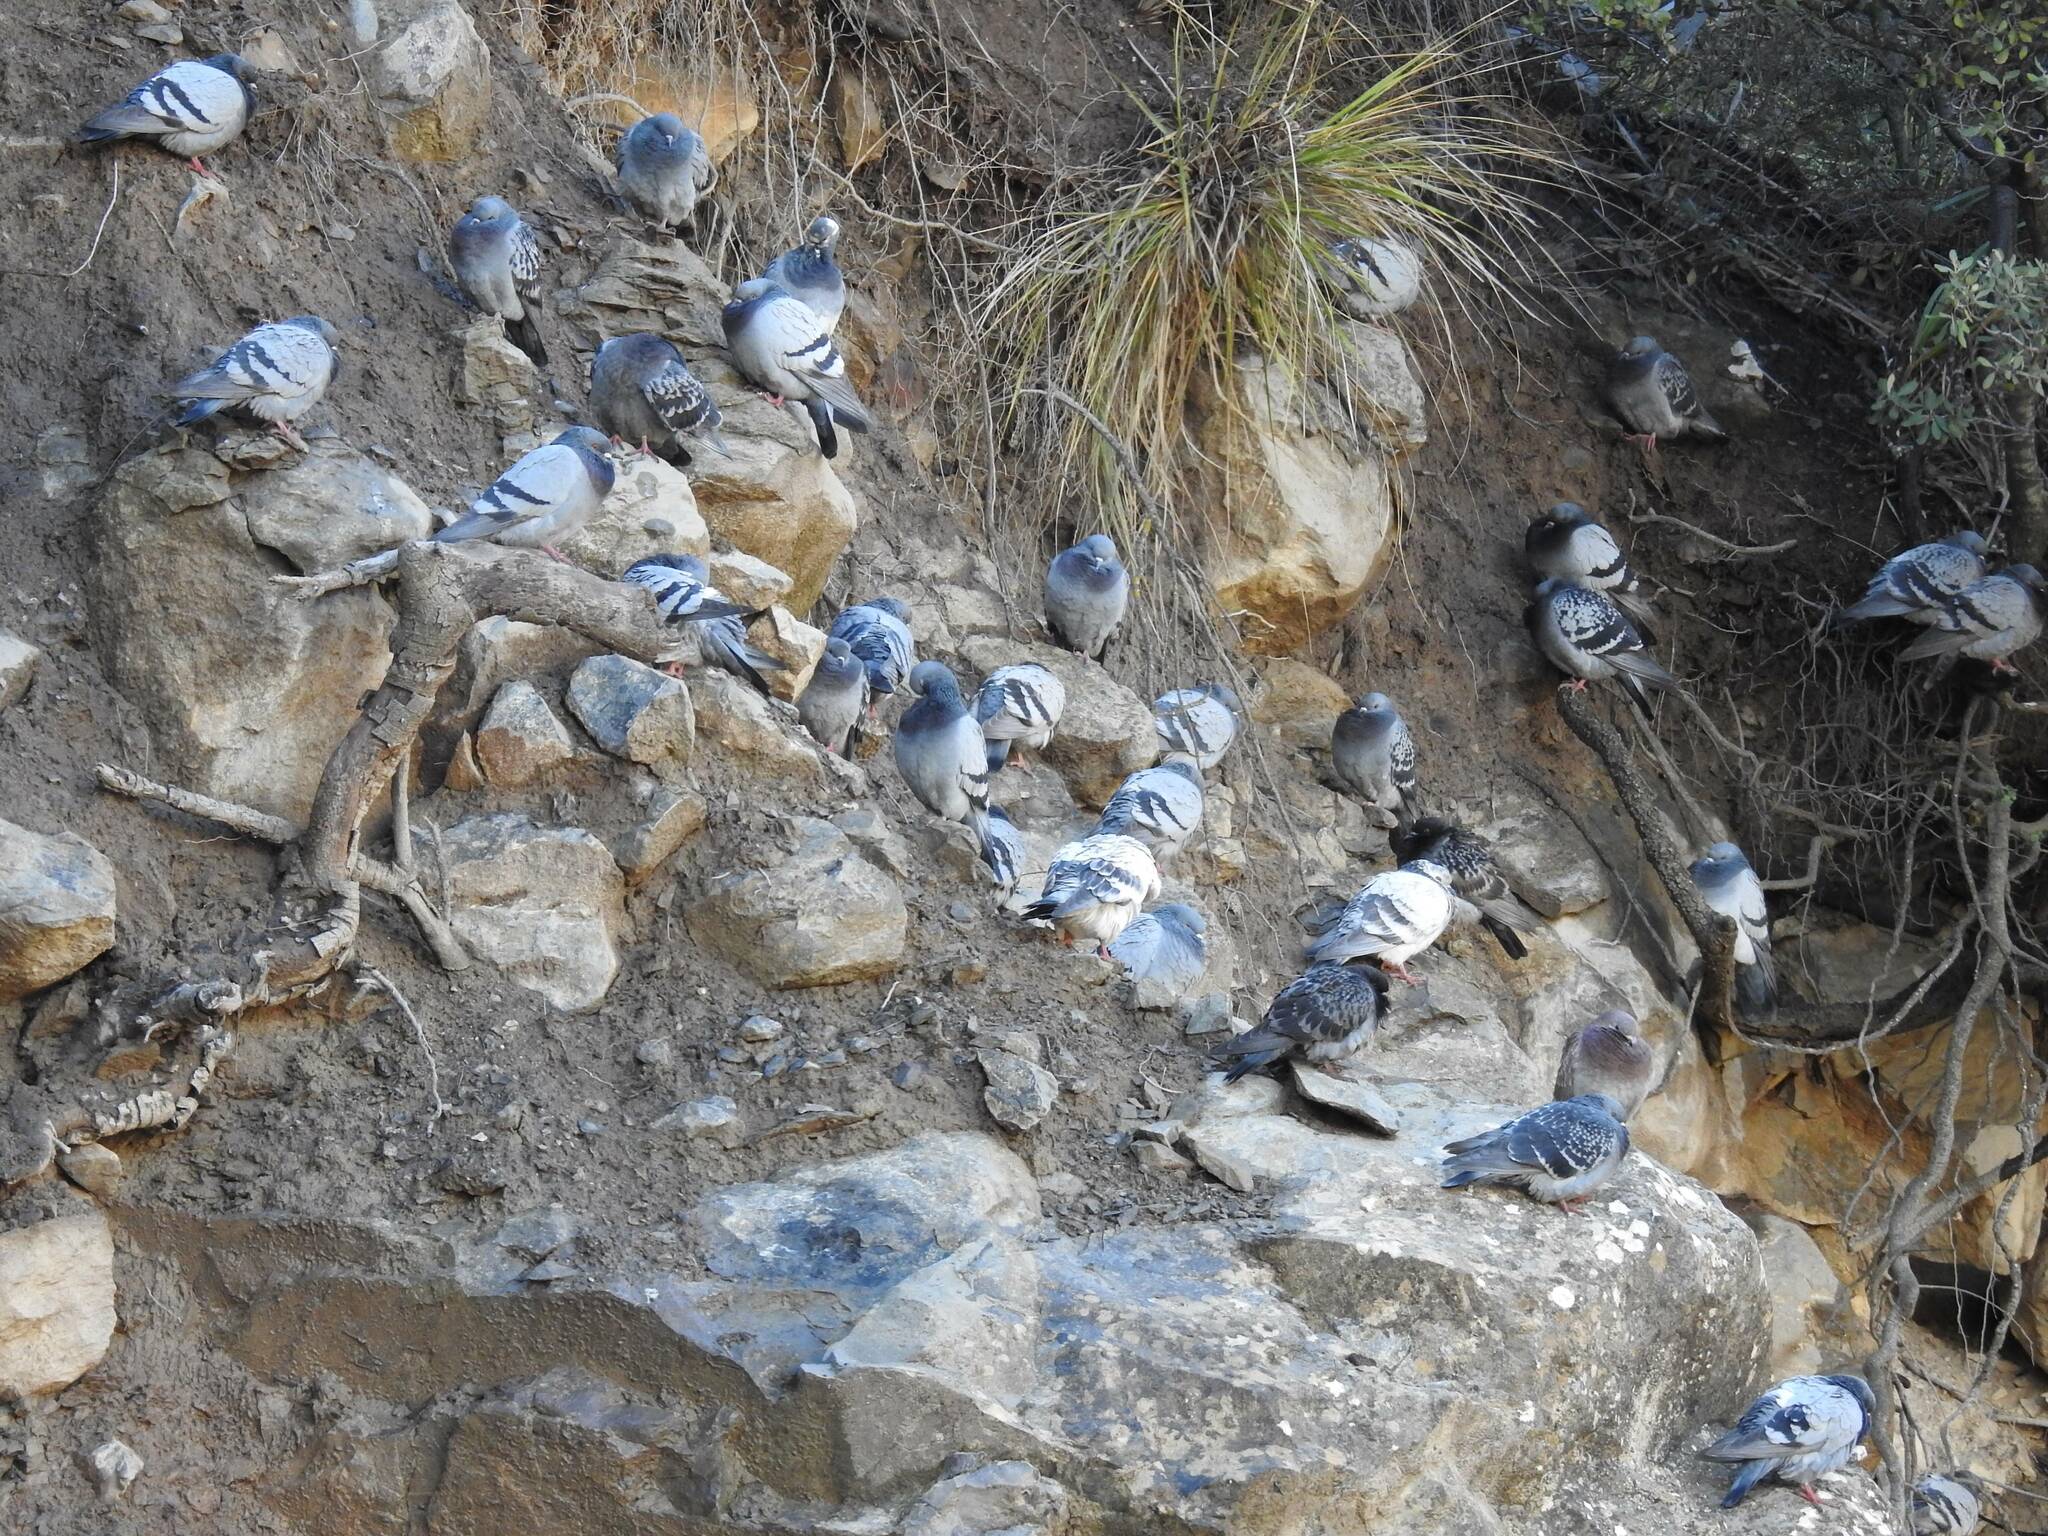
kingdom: Animalia
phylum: Chordata
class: Aves
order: Columbiformes
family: Columbidae
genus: Columba
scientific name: Columba livia
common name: Rock pigeon
